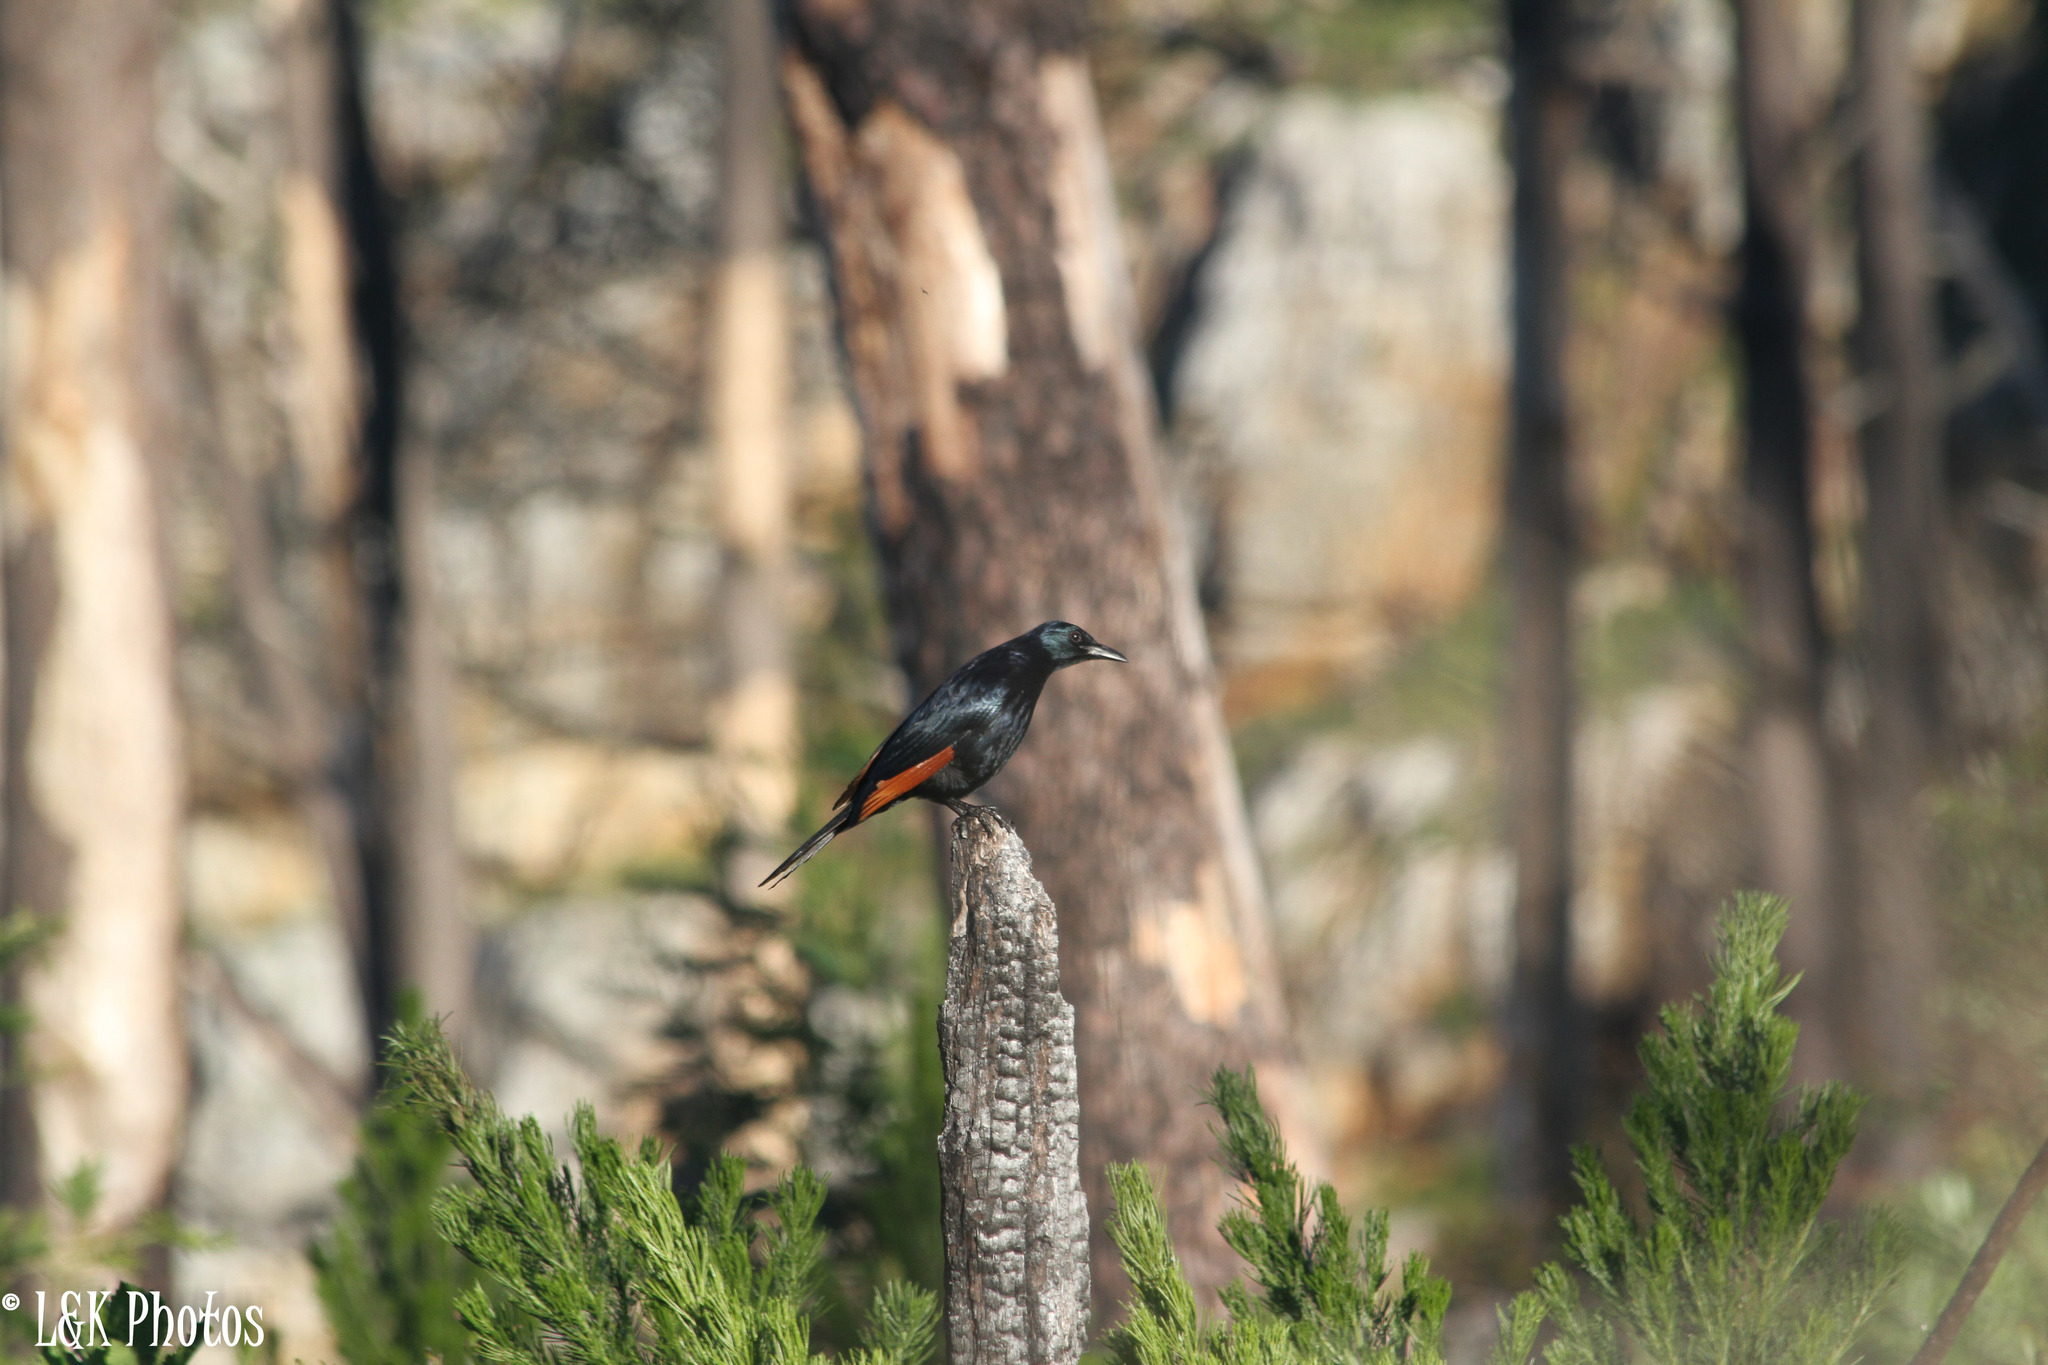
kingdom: Animalia
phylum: Chordata
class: Aves
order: Passeriformes
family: Sturnidae
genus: Onychognathus
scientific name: Onychognathus morio
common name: Red-winged starling
